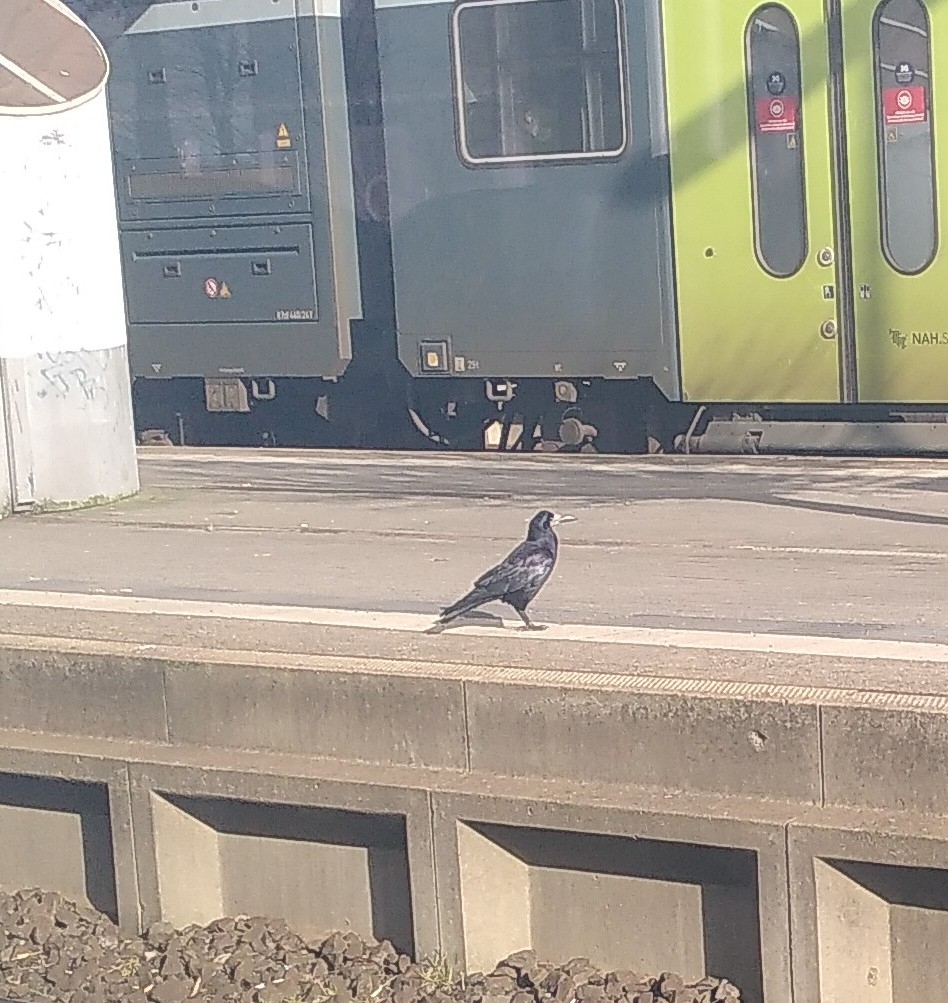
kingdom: Animalia
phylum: Chordata
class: Aves
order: Passeriformes
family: Corvidae
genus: Corvus
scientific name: Corvus frugilegus
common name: Rook
